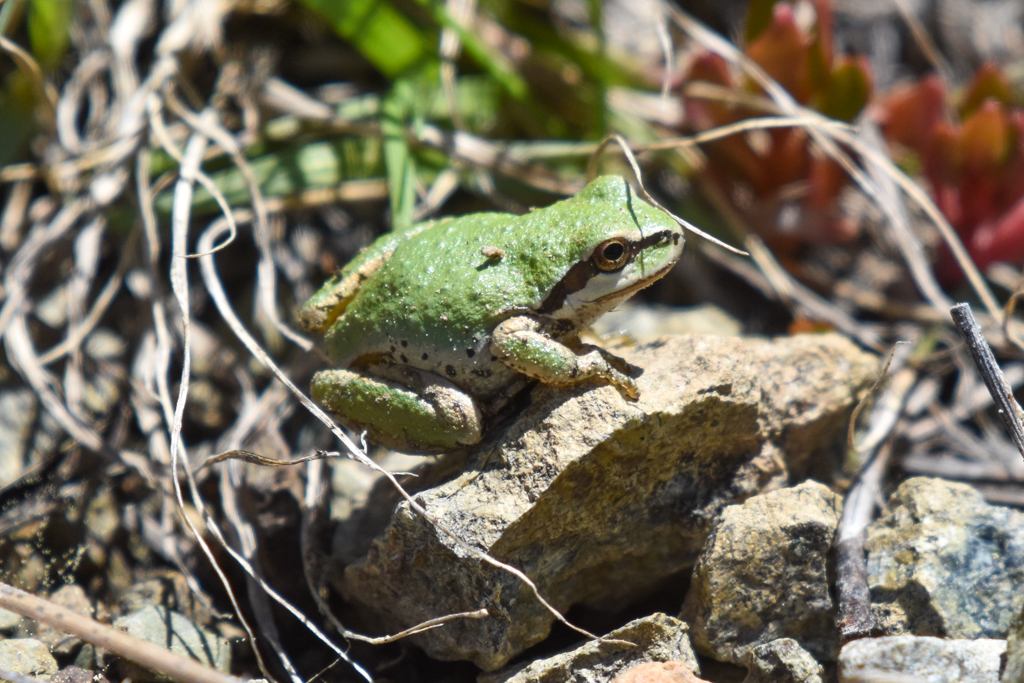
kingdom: Animalia
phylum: Chordata
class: Amphibia
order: Anura
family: Hylidae
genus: Pseudacris
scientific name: Pseudacris regilla
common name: Pacific chorus frog
